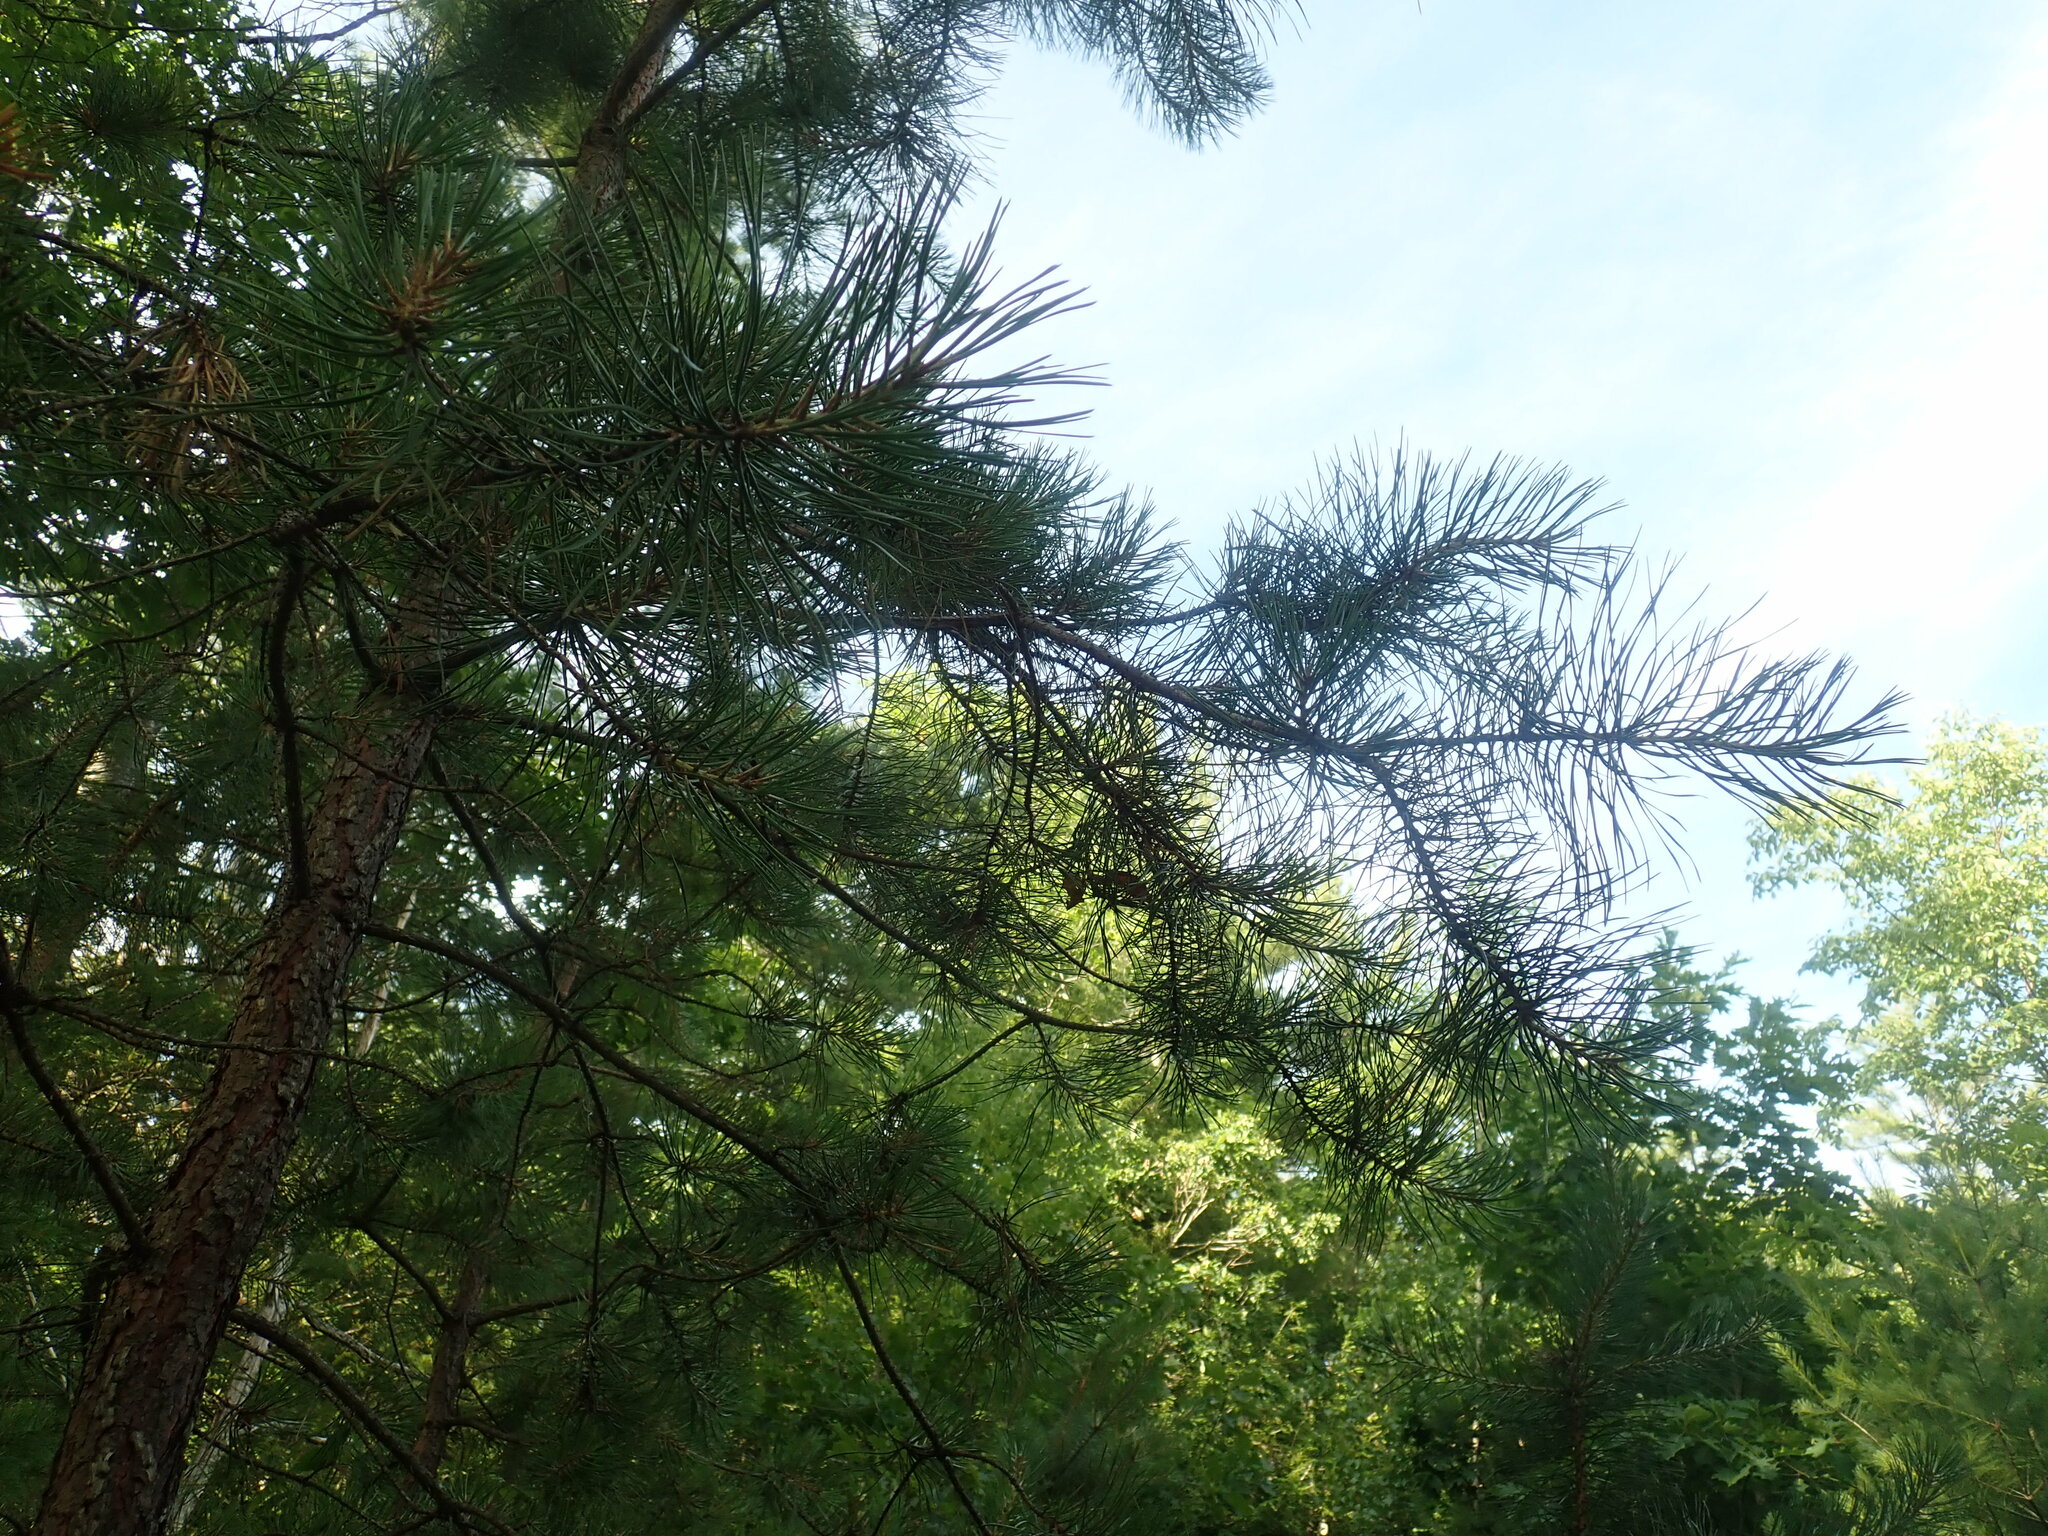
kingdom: Plantae
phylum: Tracheophyta
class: Pinopsida
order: Pinales
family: Pinaceae
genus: Pinus
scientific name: Pinus rigida
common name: Pitch pine
